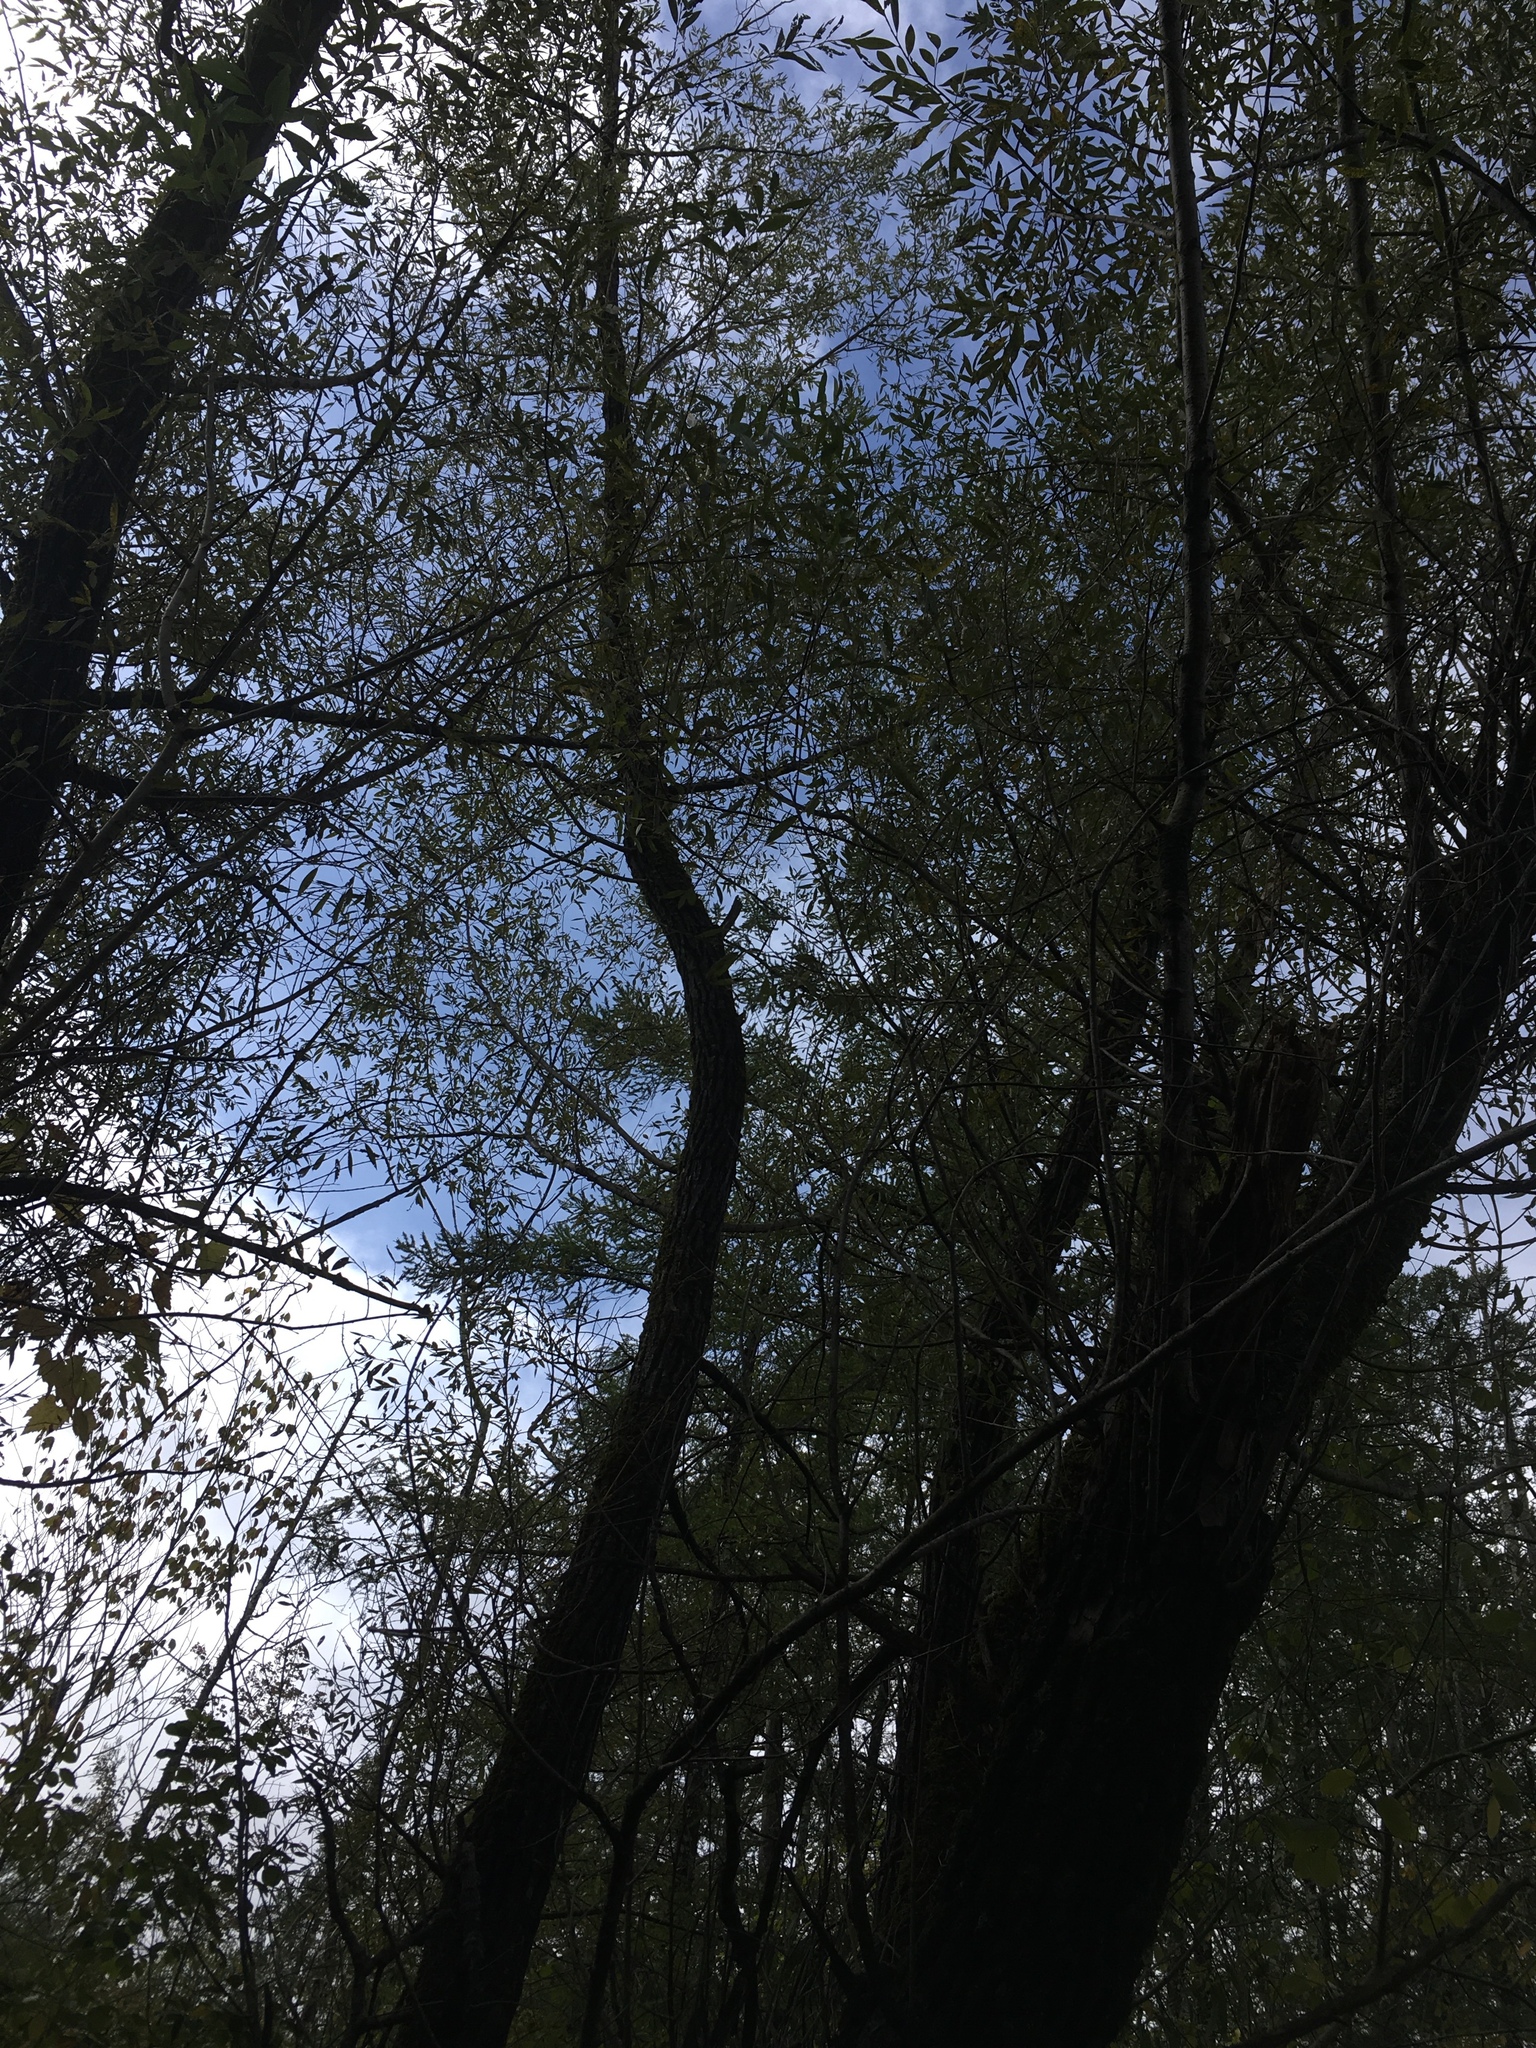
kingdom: Plantae
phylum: Tracheophyta
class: Magnoliopsida
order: Malpighiales
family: Salicaceae
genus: Salix
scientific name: Salix nigra
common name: Black willow
